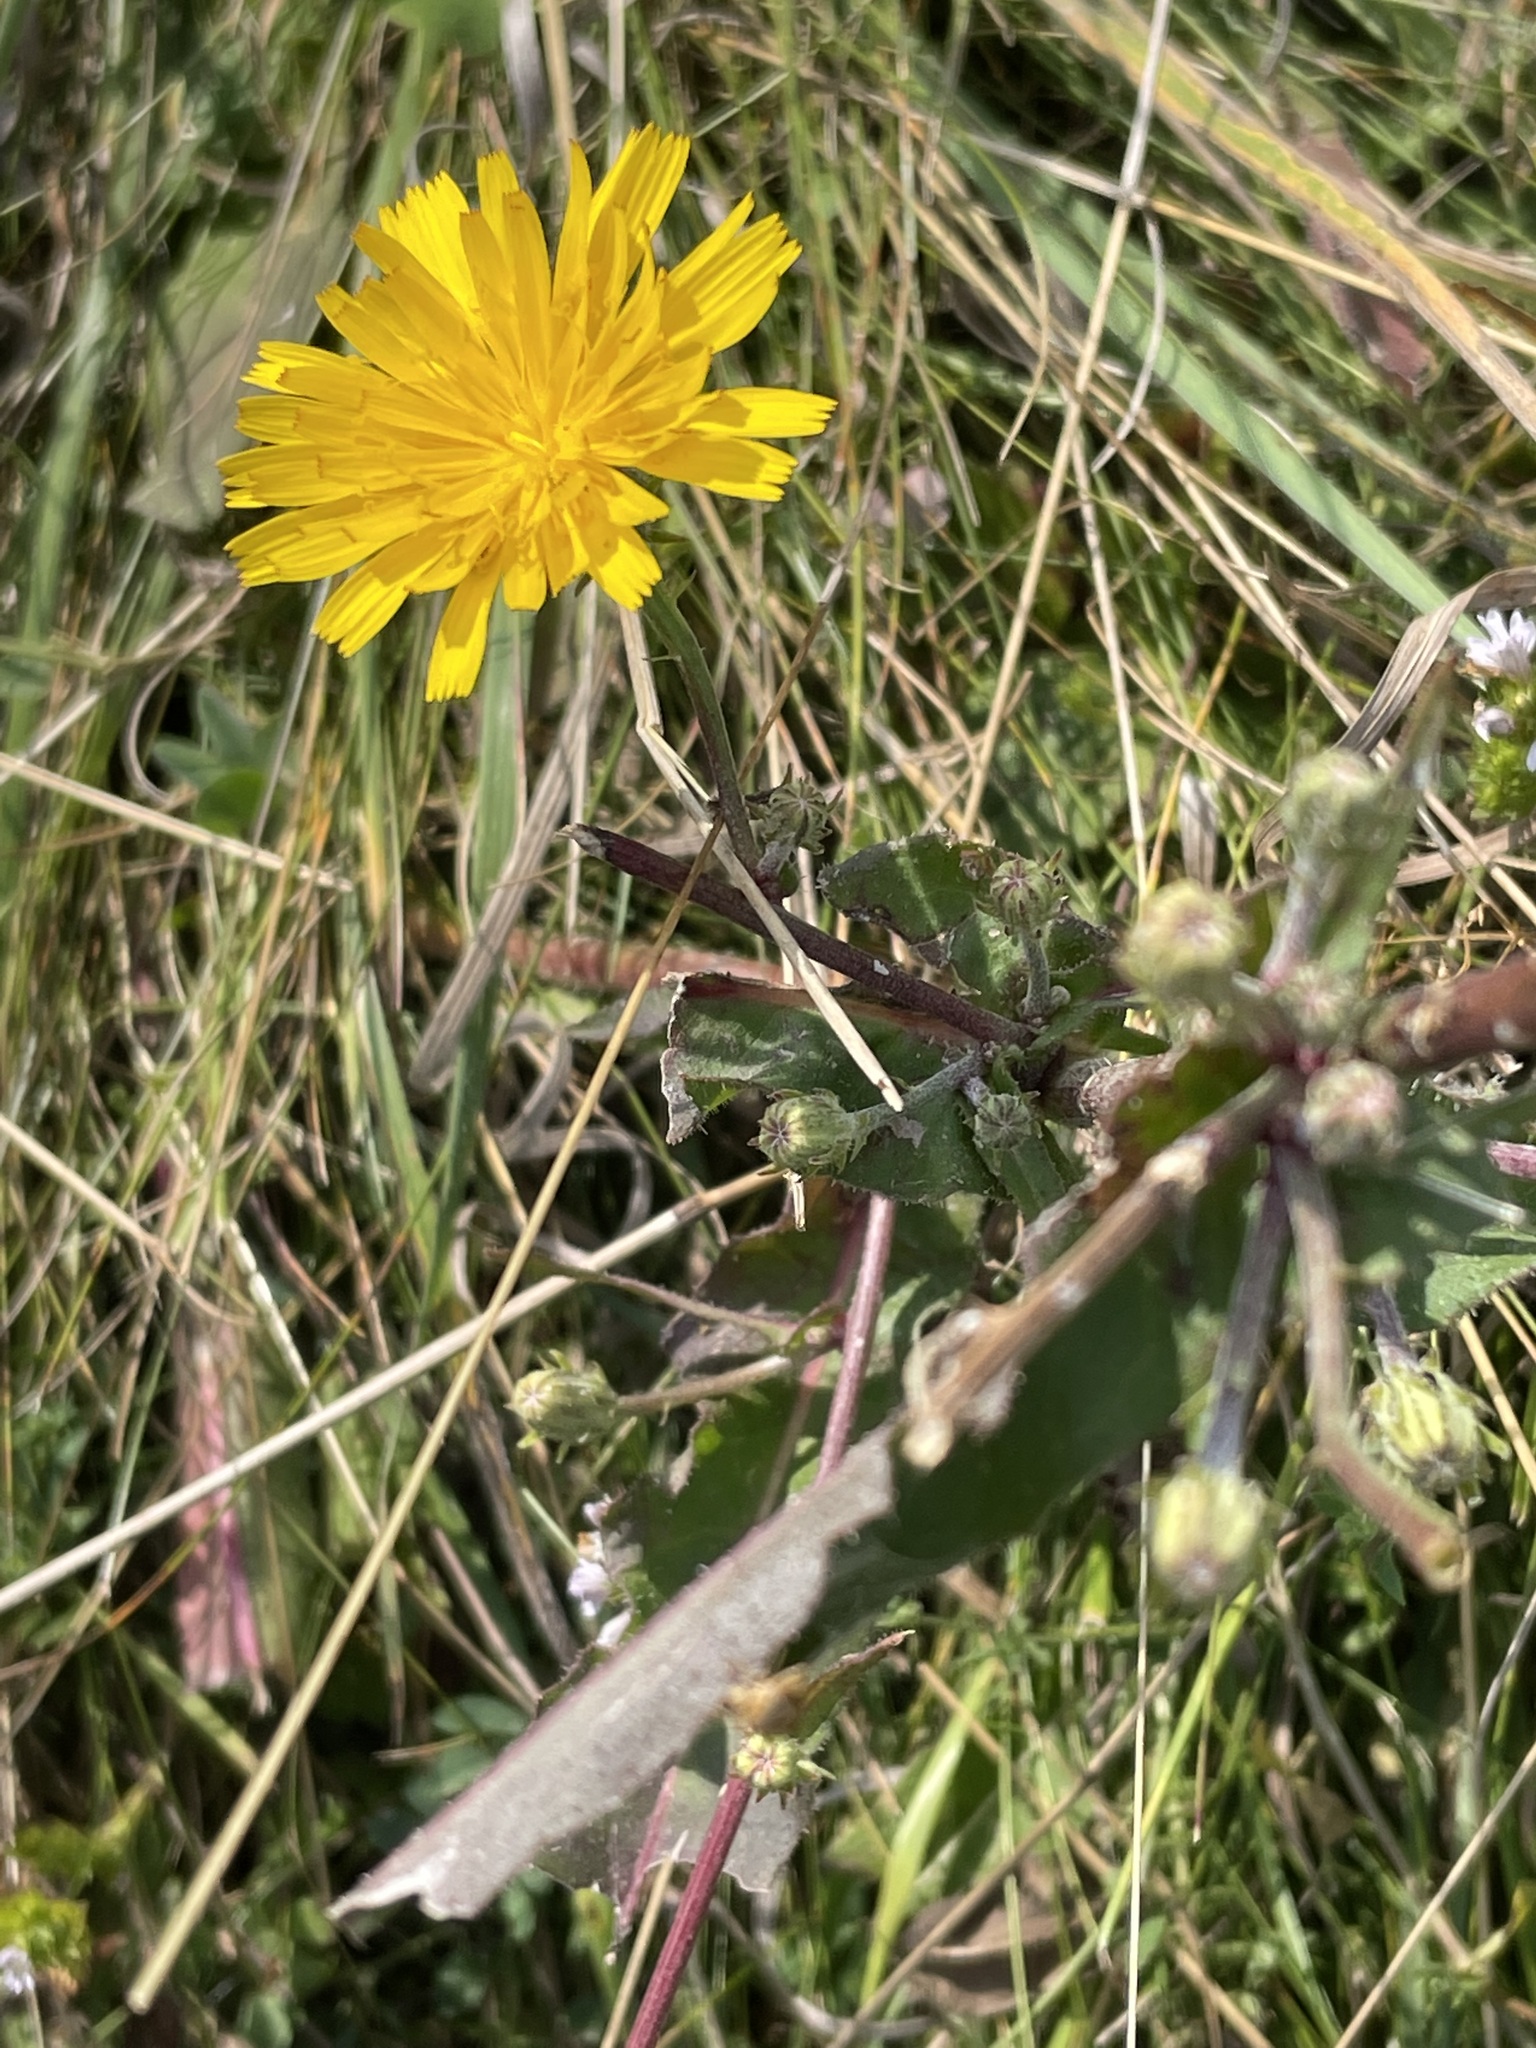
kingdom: Plantae
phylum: Tracheophyta
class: Magnoliopsida
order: Asterales
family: Asteraceae
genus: Picris
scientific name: Picris hieracioides
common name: Hawkweed oxtongue
